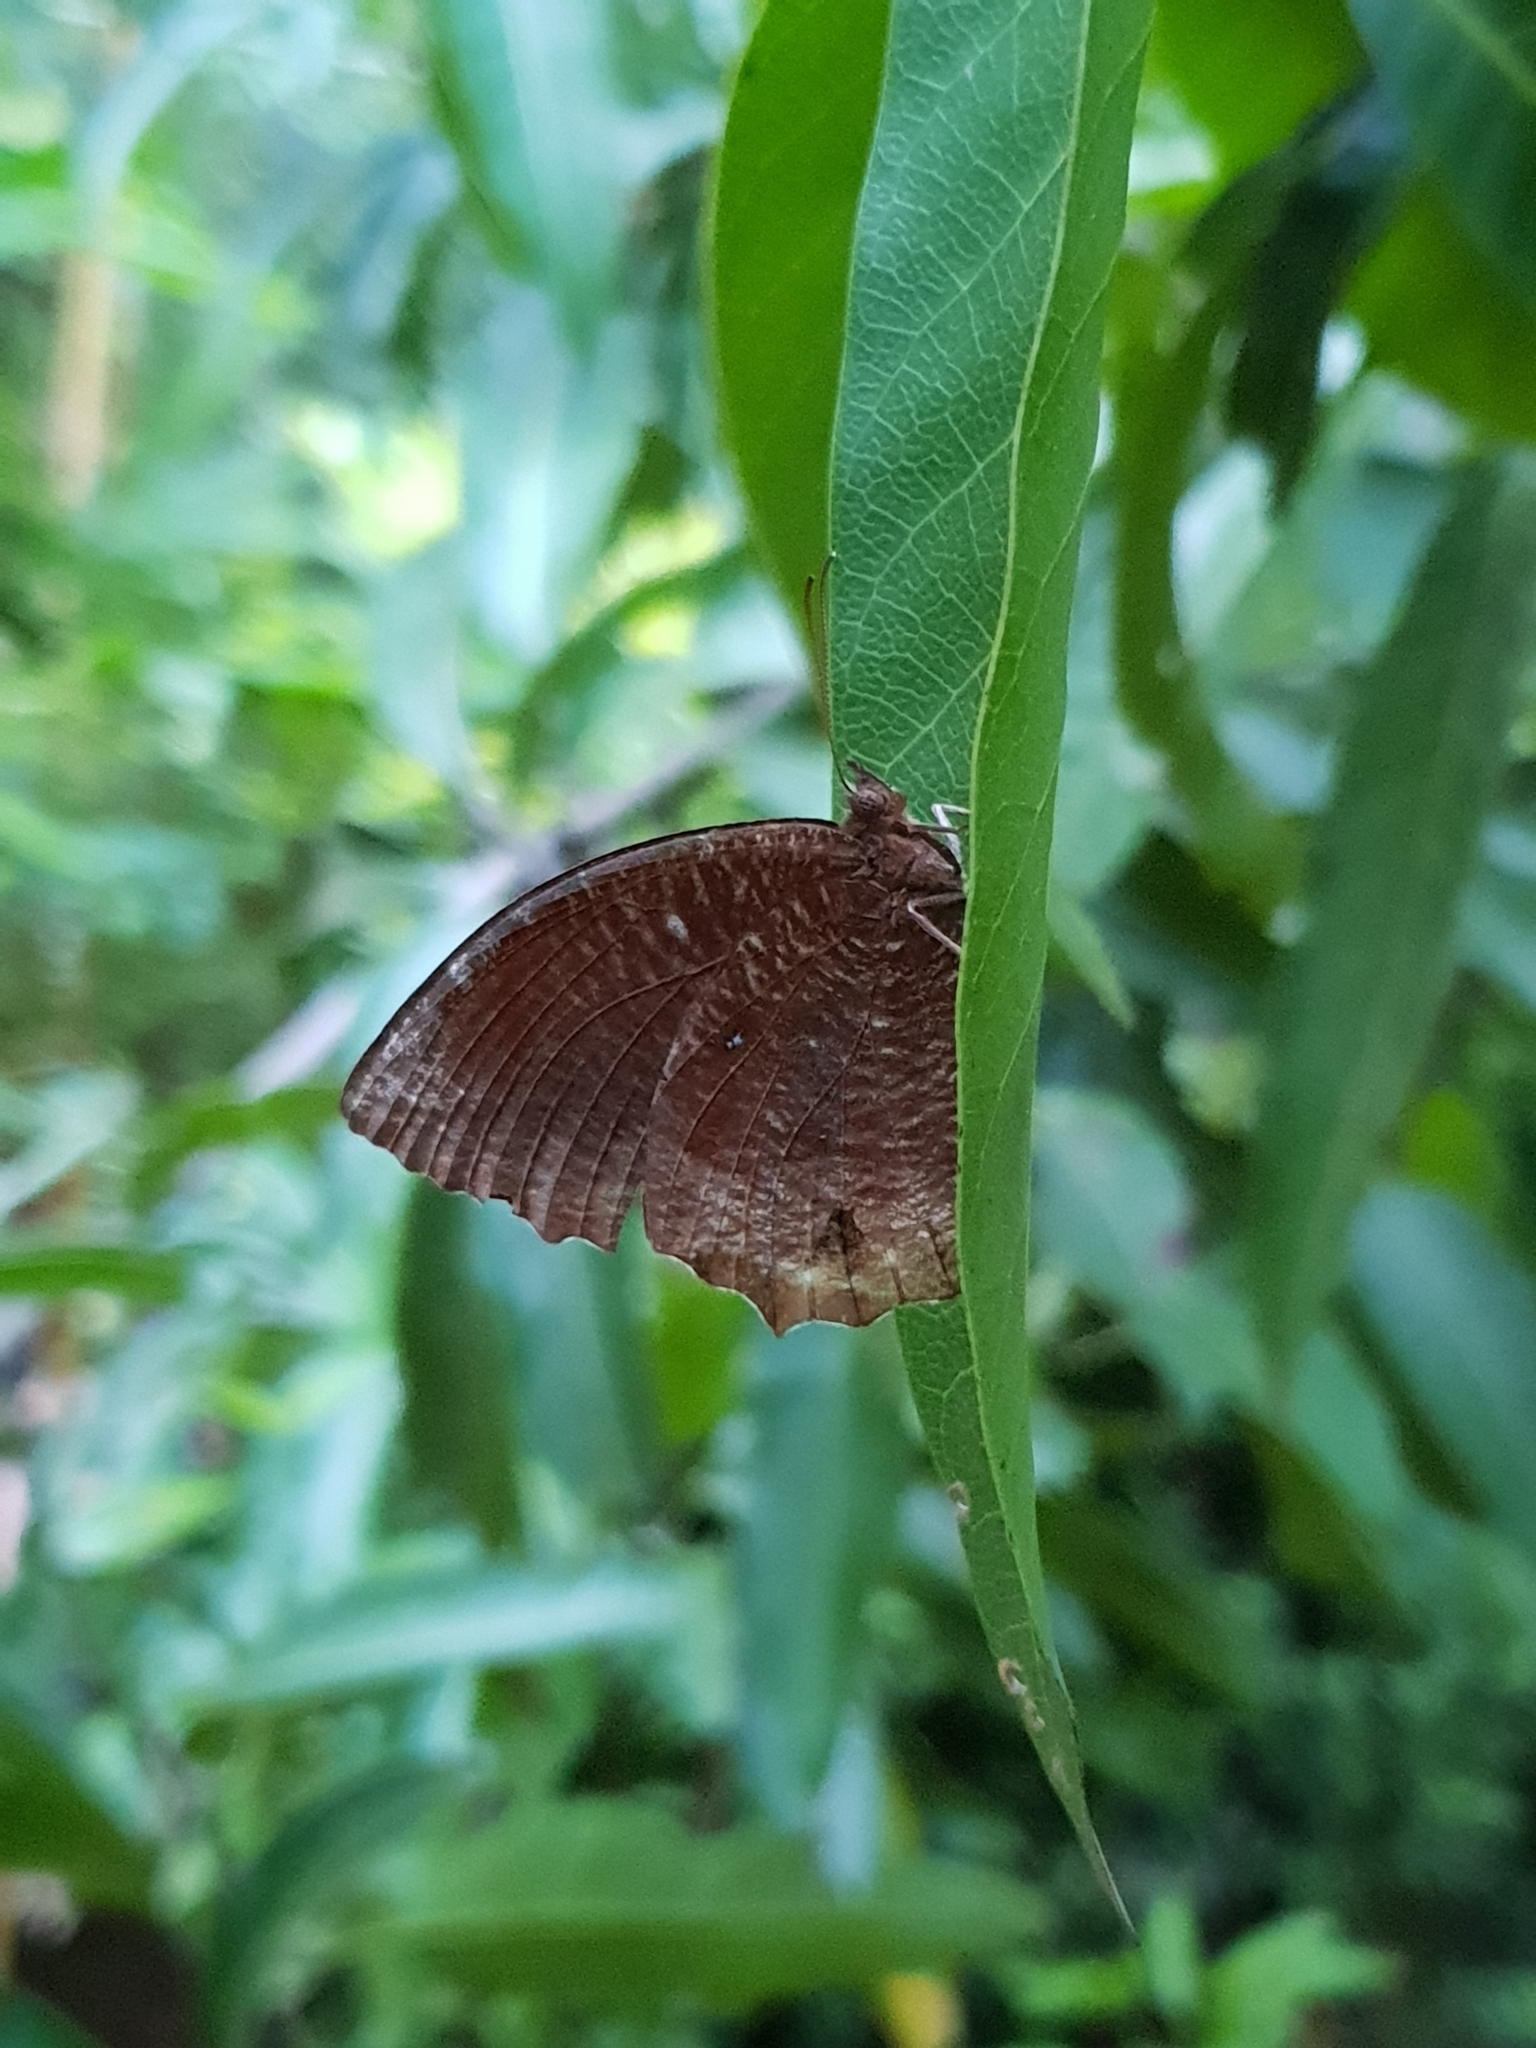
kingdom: Animalia
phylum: Arthropoda
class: Insecta
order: Lepidoptera
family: Nymphalidae
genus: Elymnias
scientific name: Elymnias hypermnestra
